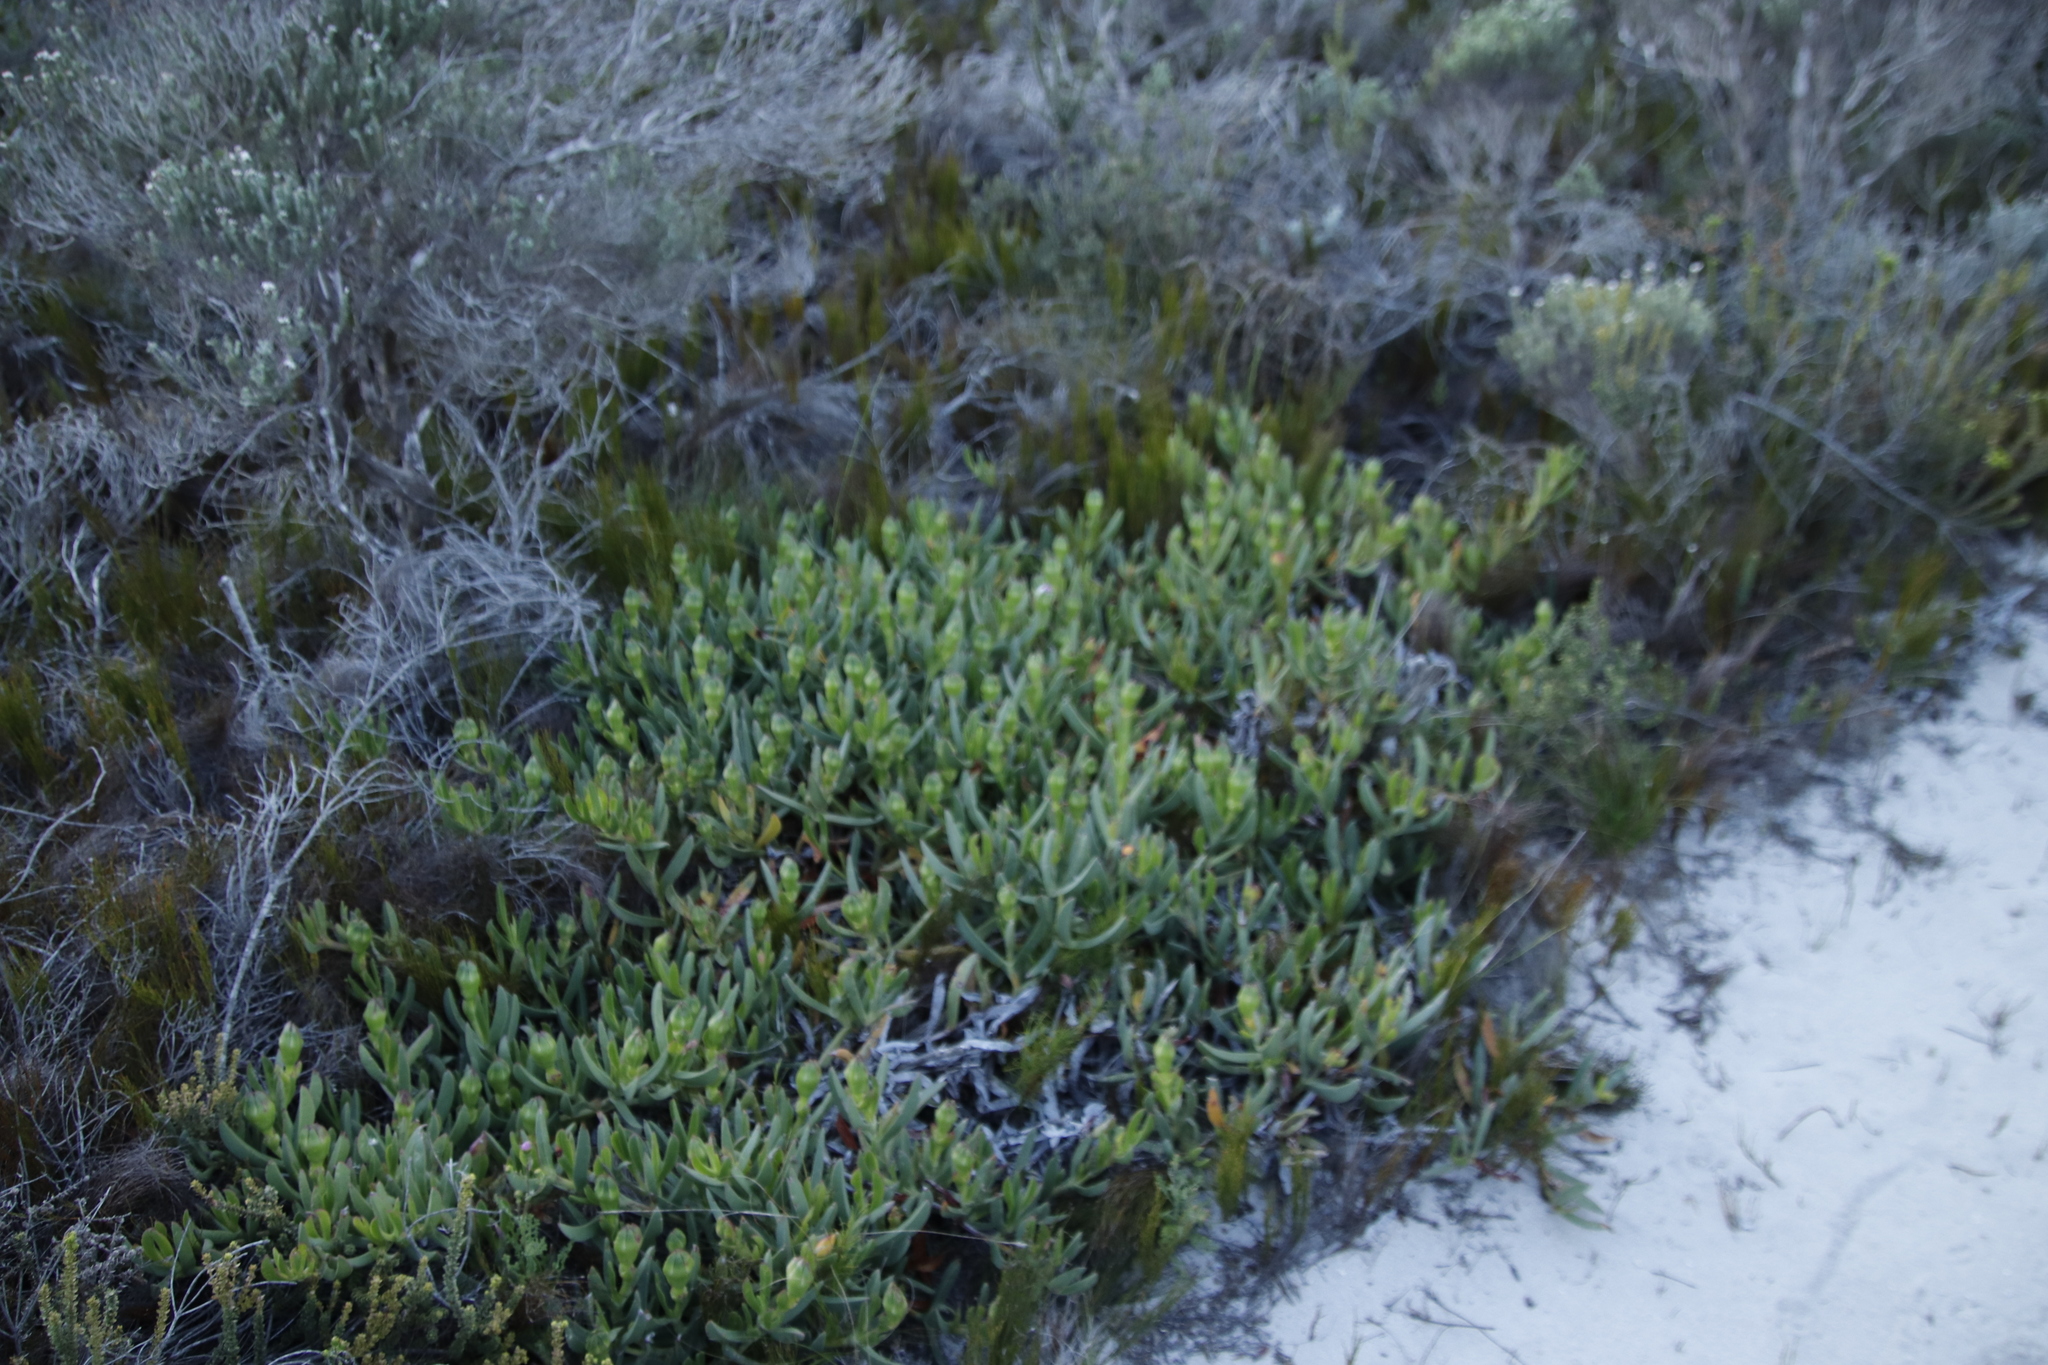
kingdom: Plantae
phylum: Tracheophyta
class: Magnoliopsida
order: Caryophyllales
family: Aizoaceae
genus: Carpobrotus
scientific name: Carpobrotus acinaciformis
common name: Sally-my-handsome
